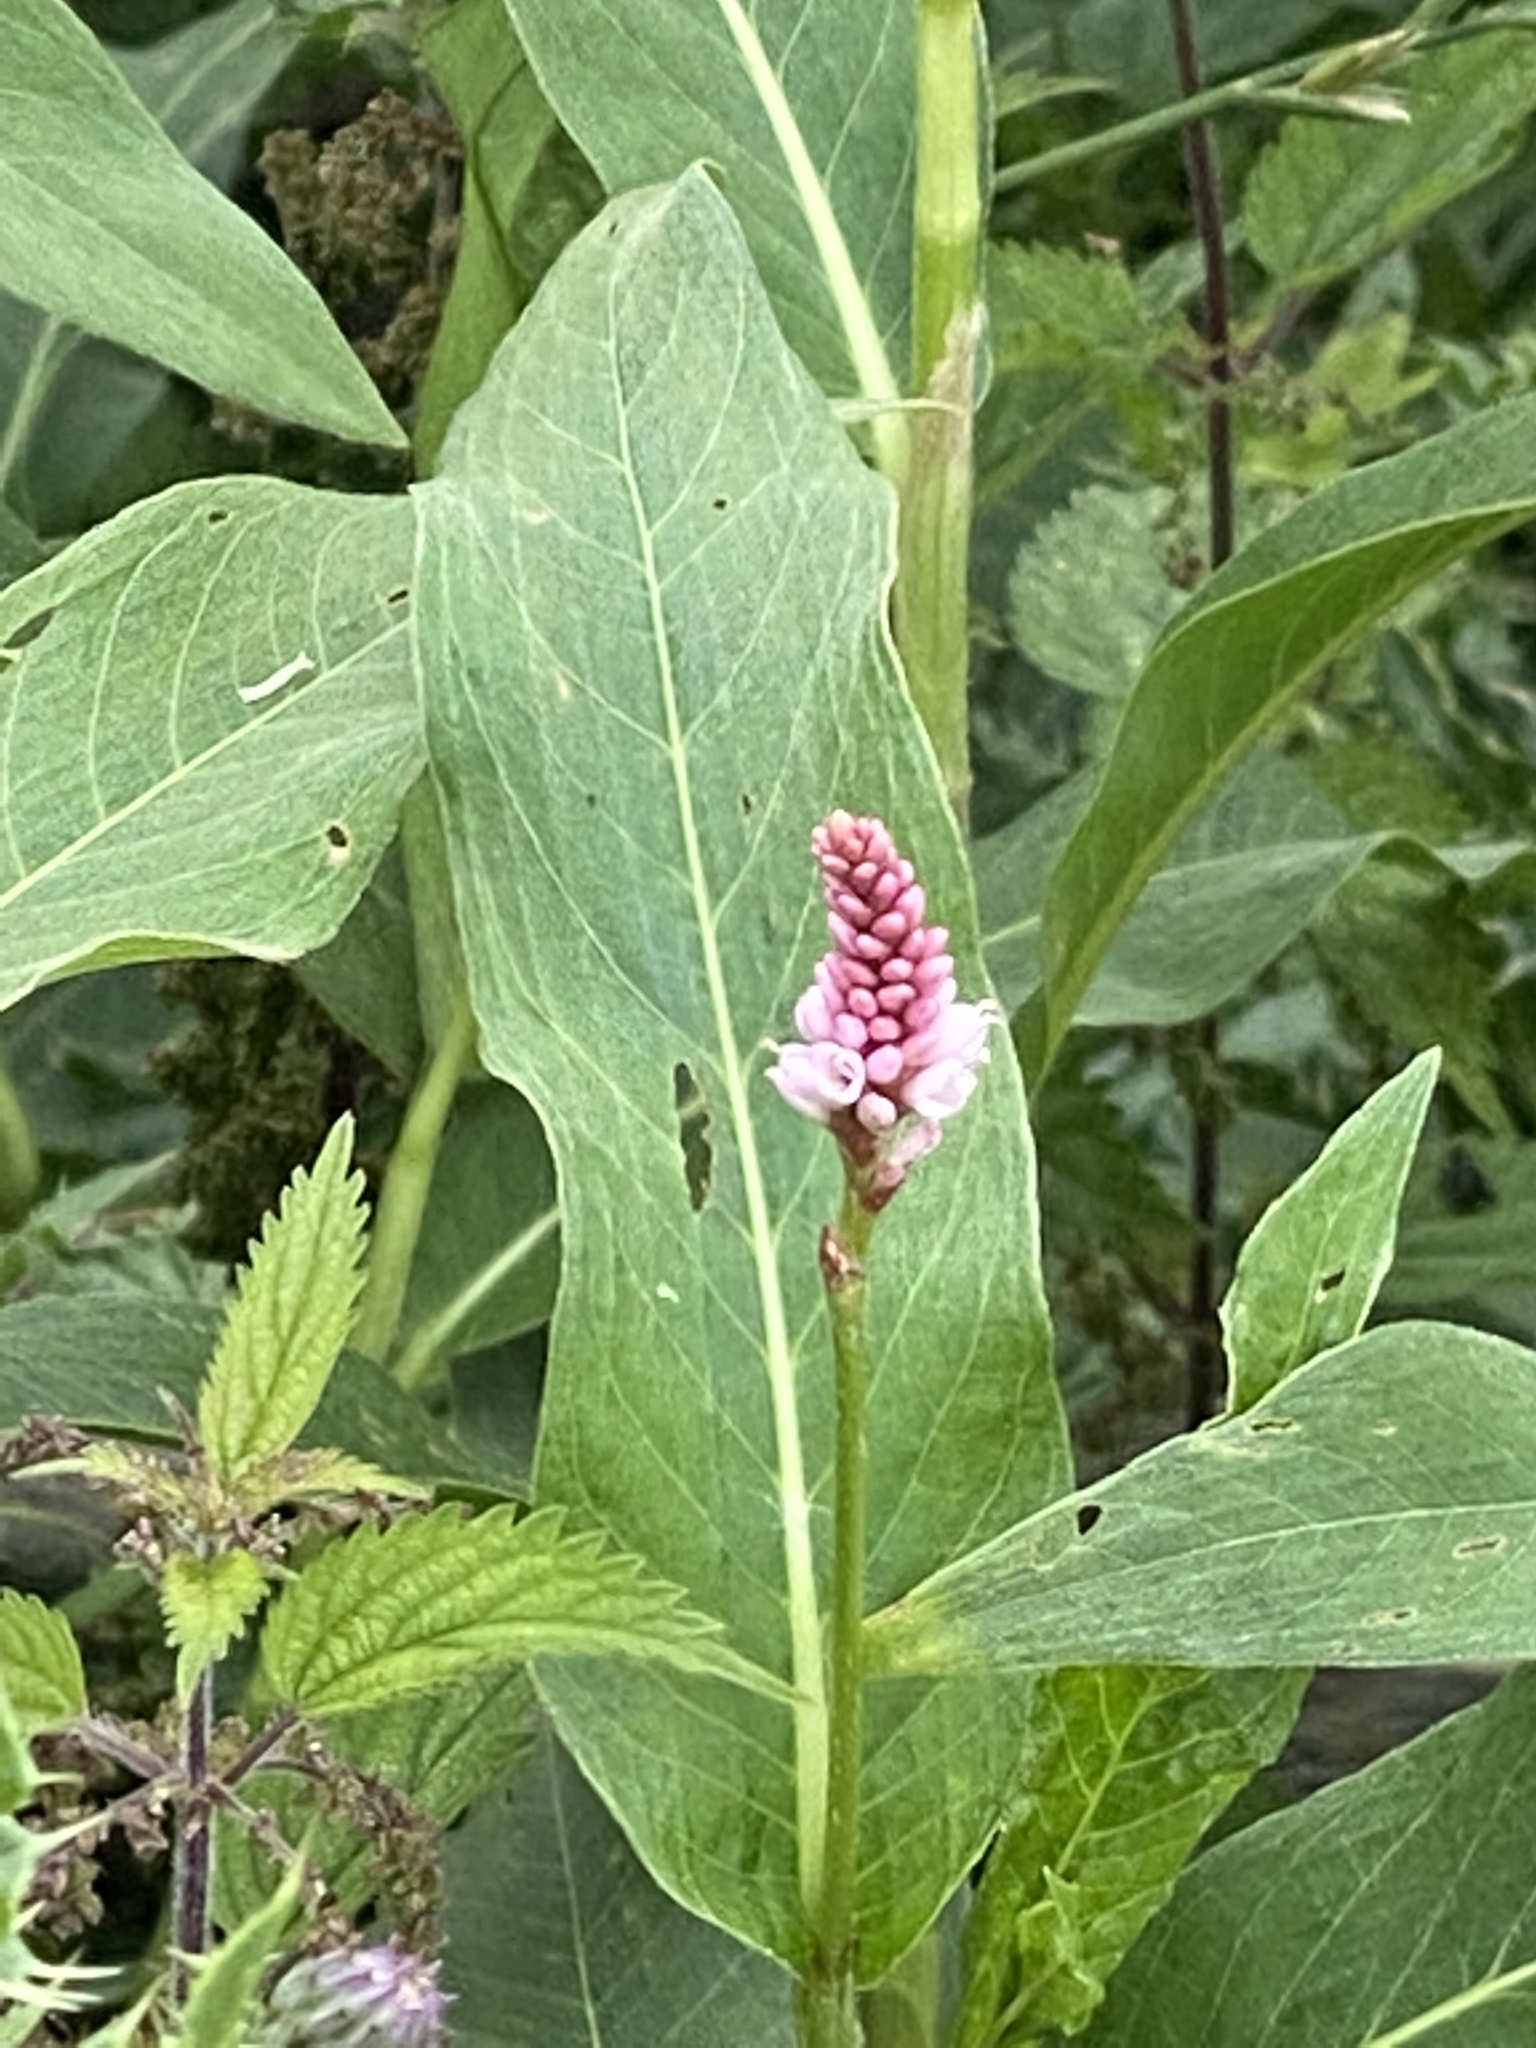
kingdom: Plantae
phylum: Tracheophyta
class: Magnoliopsida
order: Caryophyllales
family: Polygonaceae
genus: Persicaria
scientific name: Persicaria amphibia
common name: Amphibious bistort
